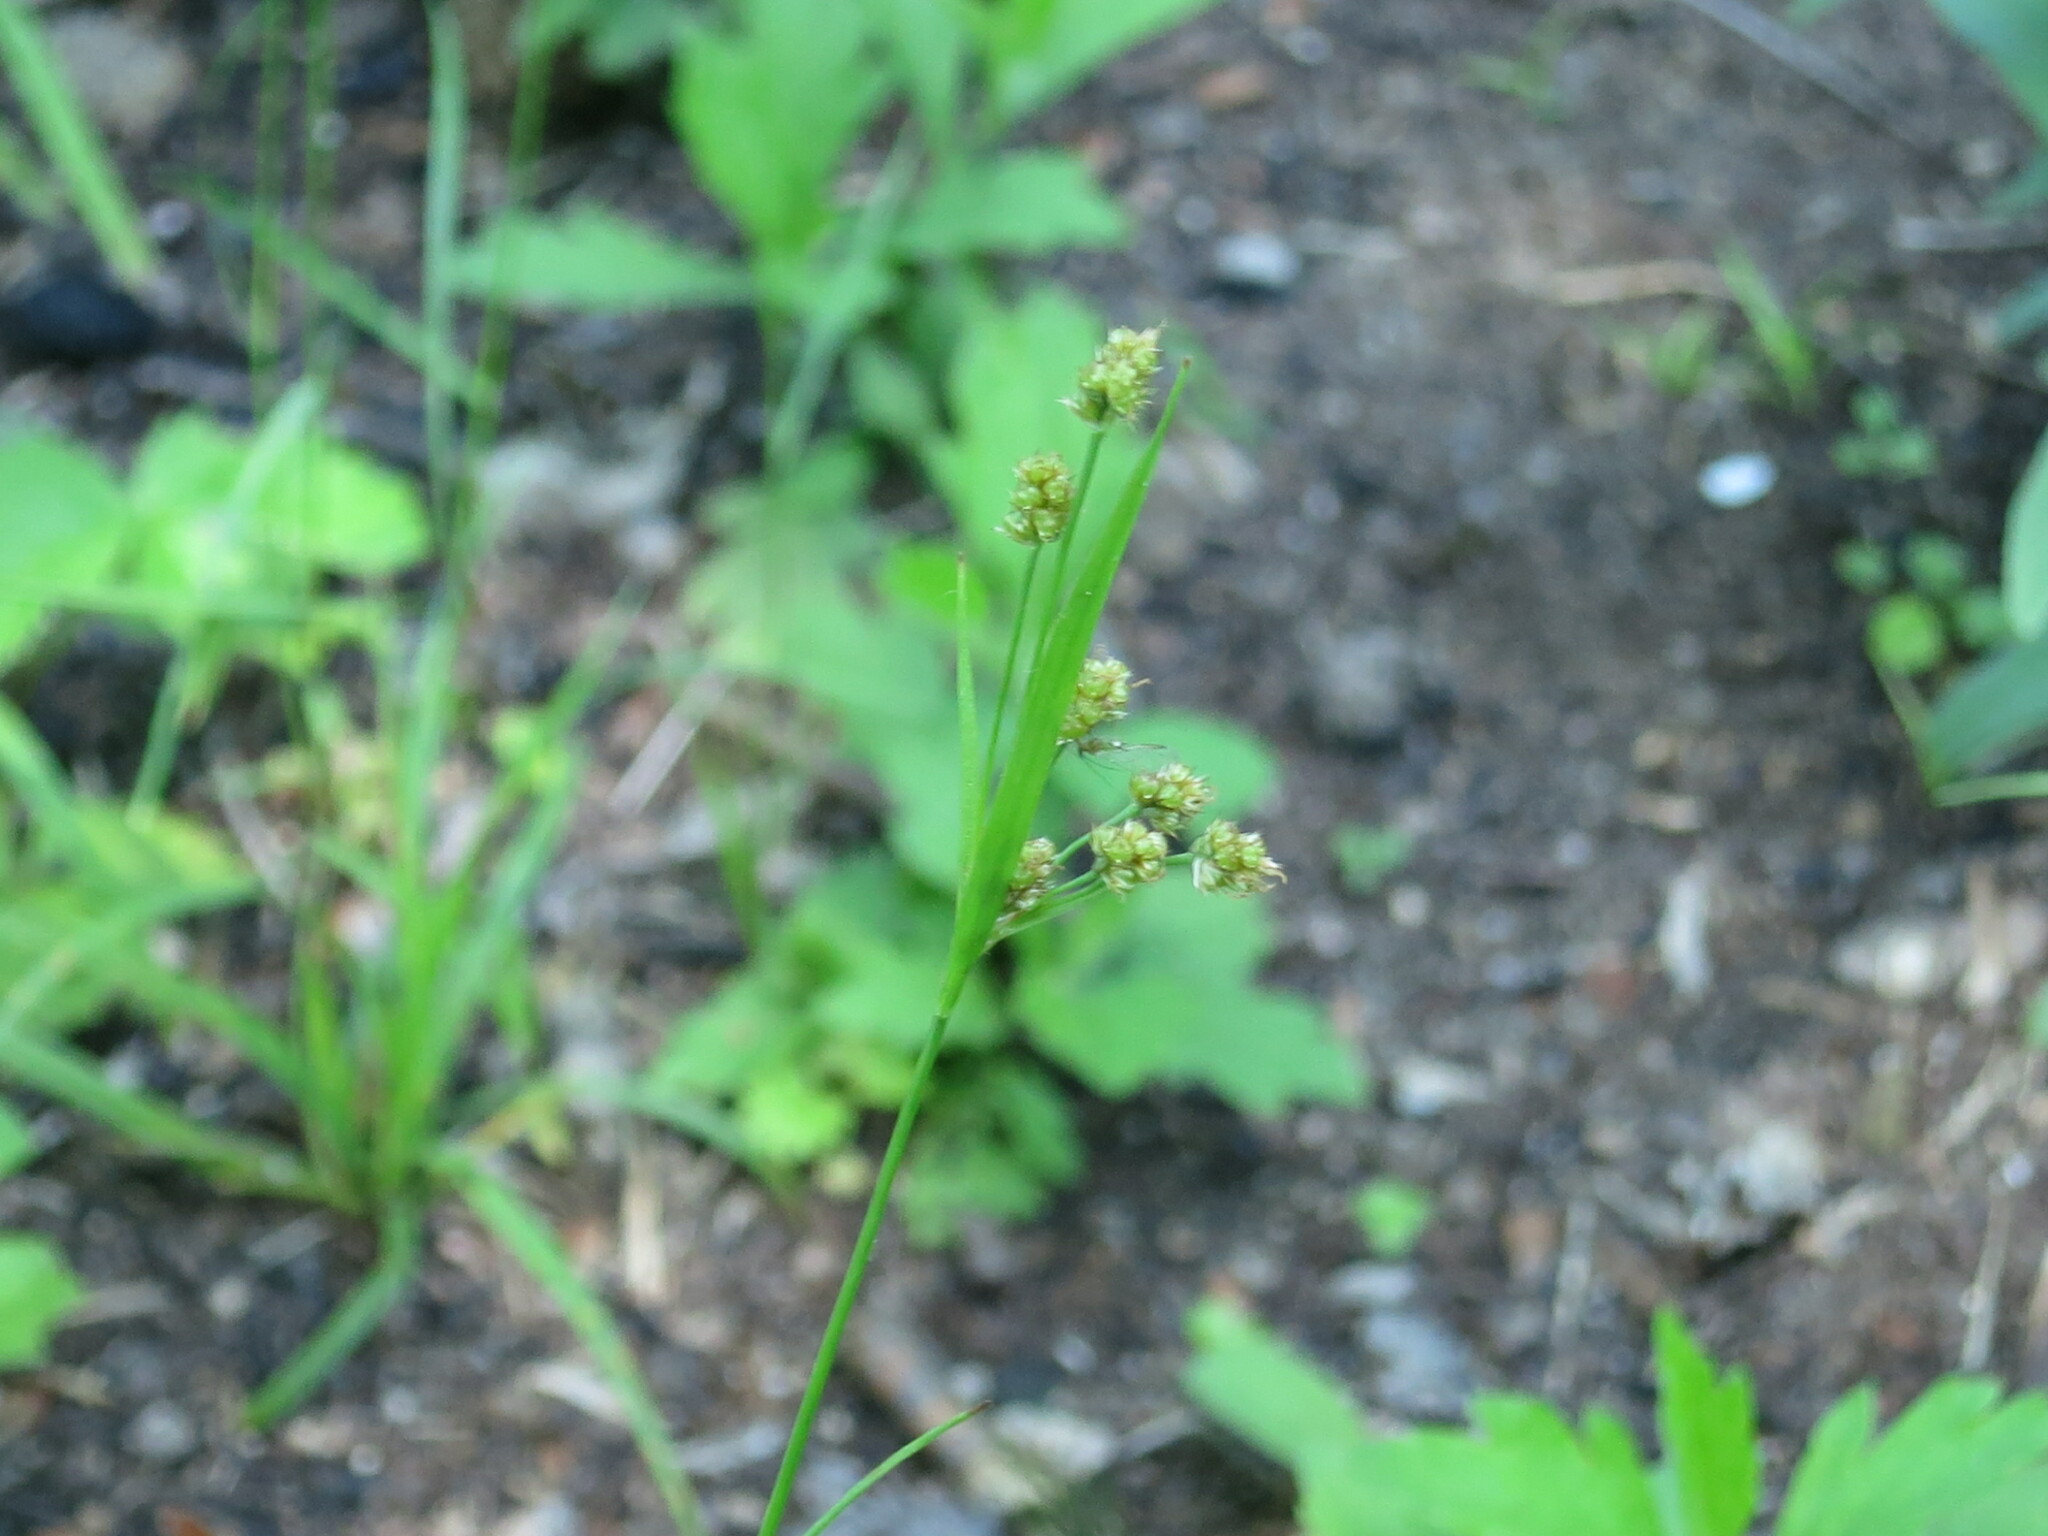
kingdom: Plantae
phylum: Tracheophyta
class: Liliopsida
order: Poales
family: Juncaceae
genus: Luzula
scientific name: Luzula pallescens
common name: Fen wood-rush
